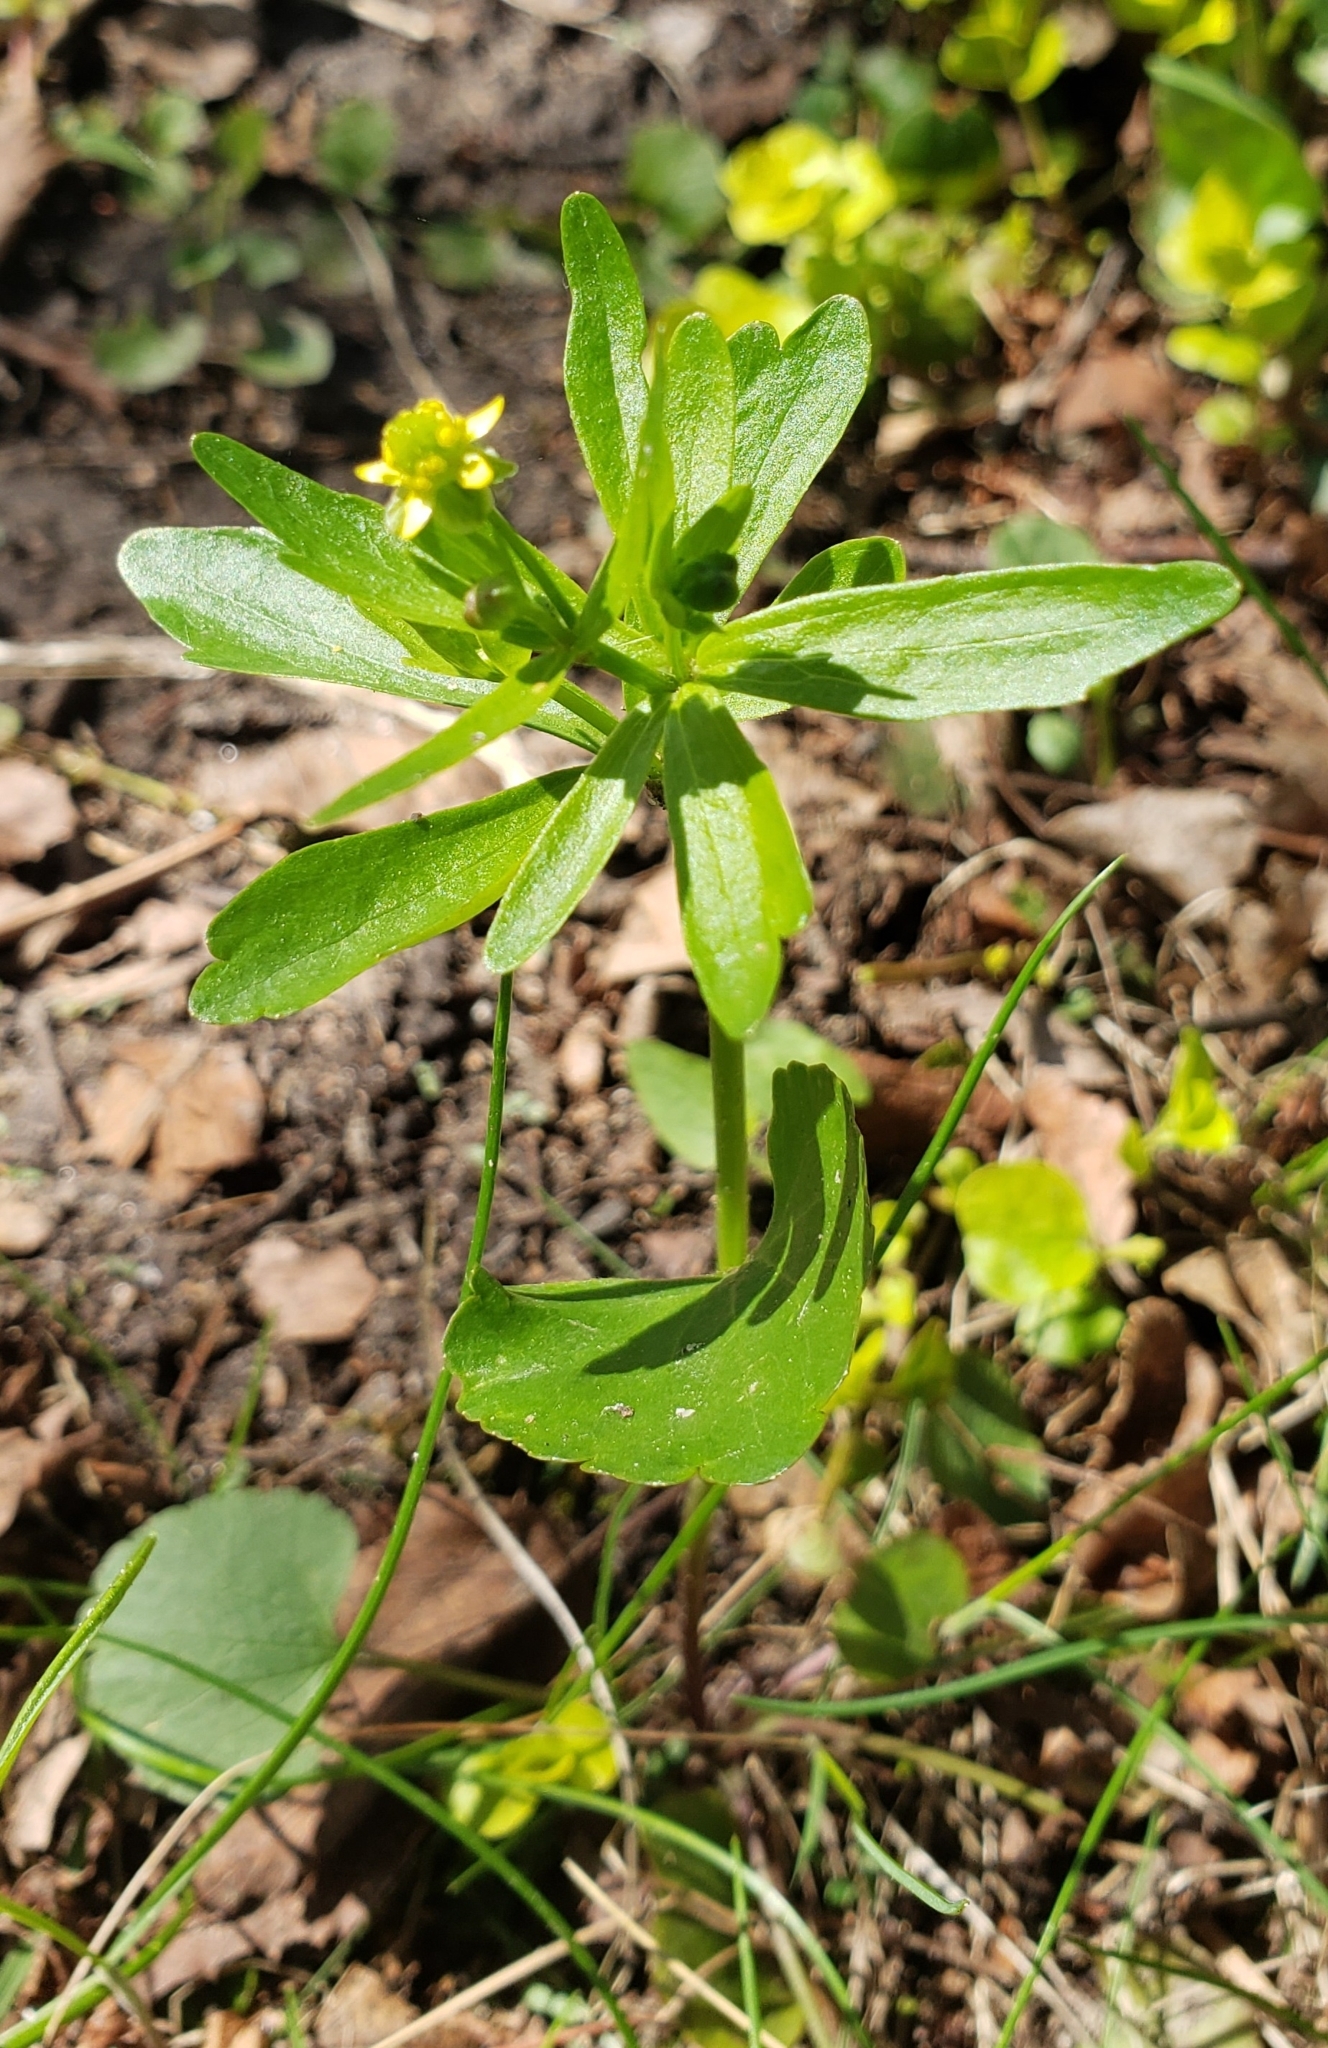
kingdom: Plantae
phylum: Tracheophyta
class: Magnoliopsida
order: Ranunculales
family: Ranunculaceae
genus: Ranunculus
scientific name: Ranunculus abortivus
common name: Early wood buttercup
